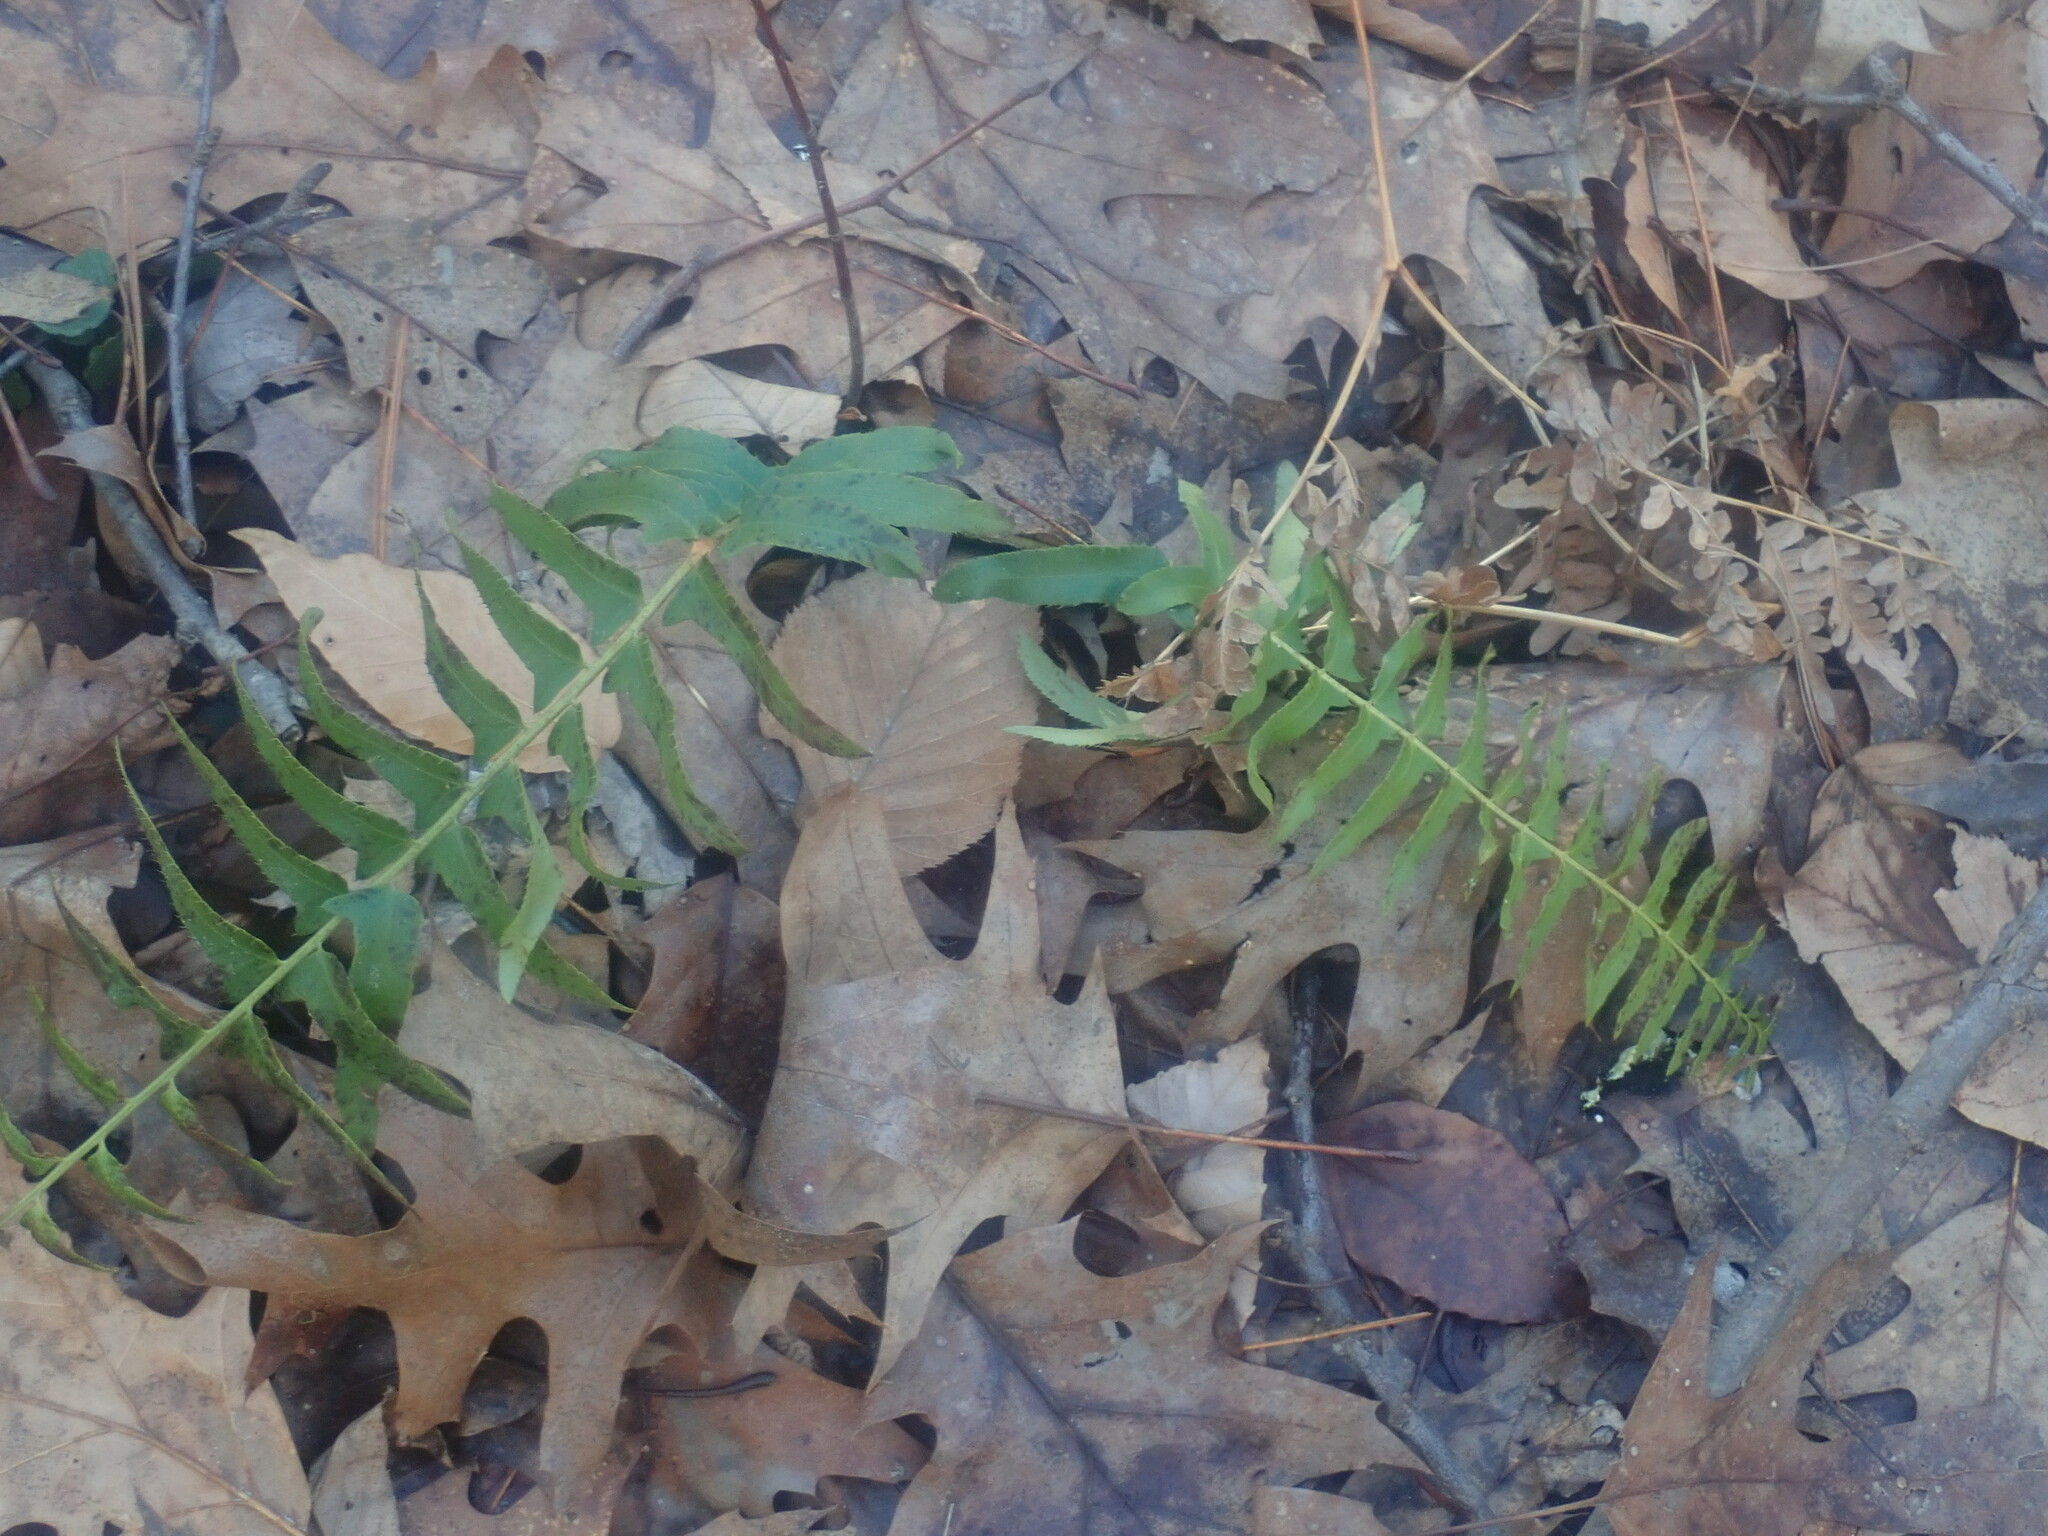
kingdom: Plantae
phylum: Tracheophyta
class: Polypodiopsida
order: Polypodiales
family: Dryopteridaceae
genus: Polystichum
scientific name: Polystichum acrostichoides
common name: Christmas fern
